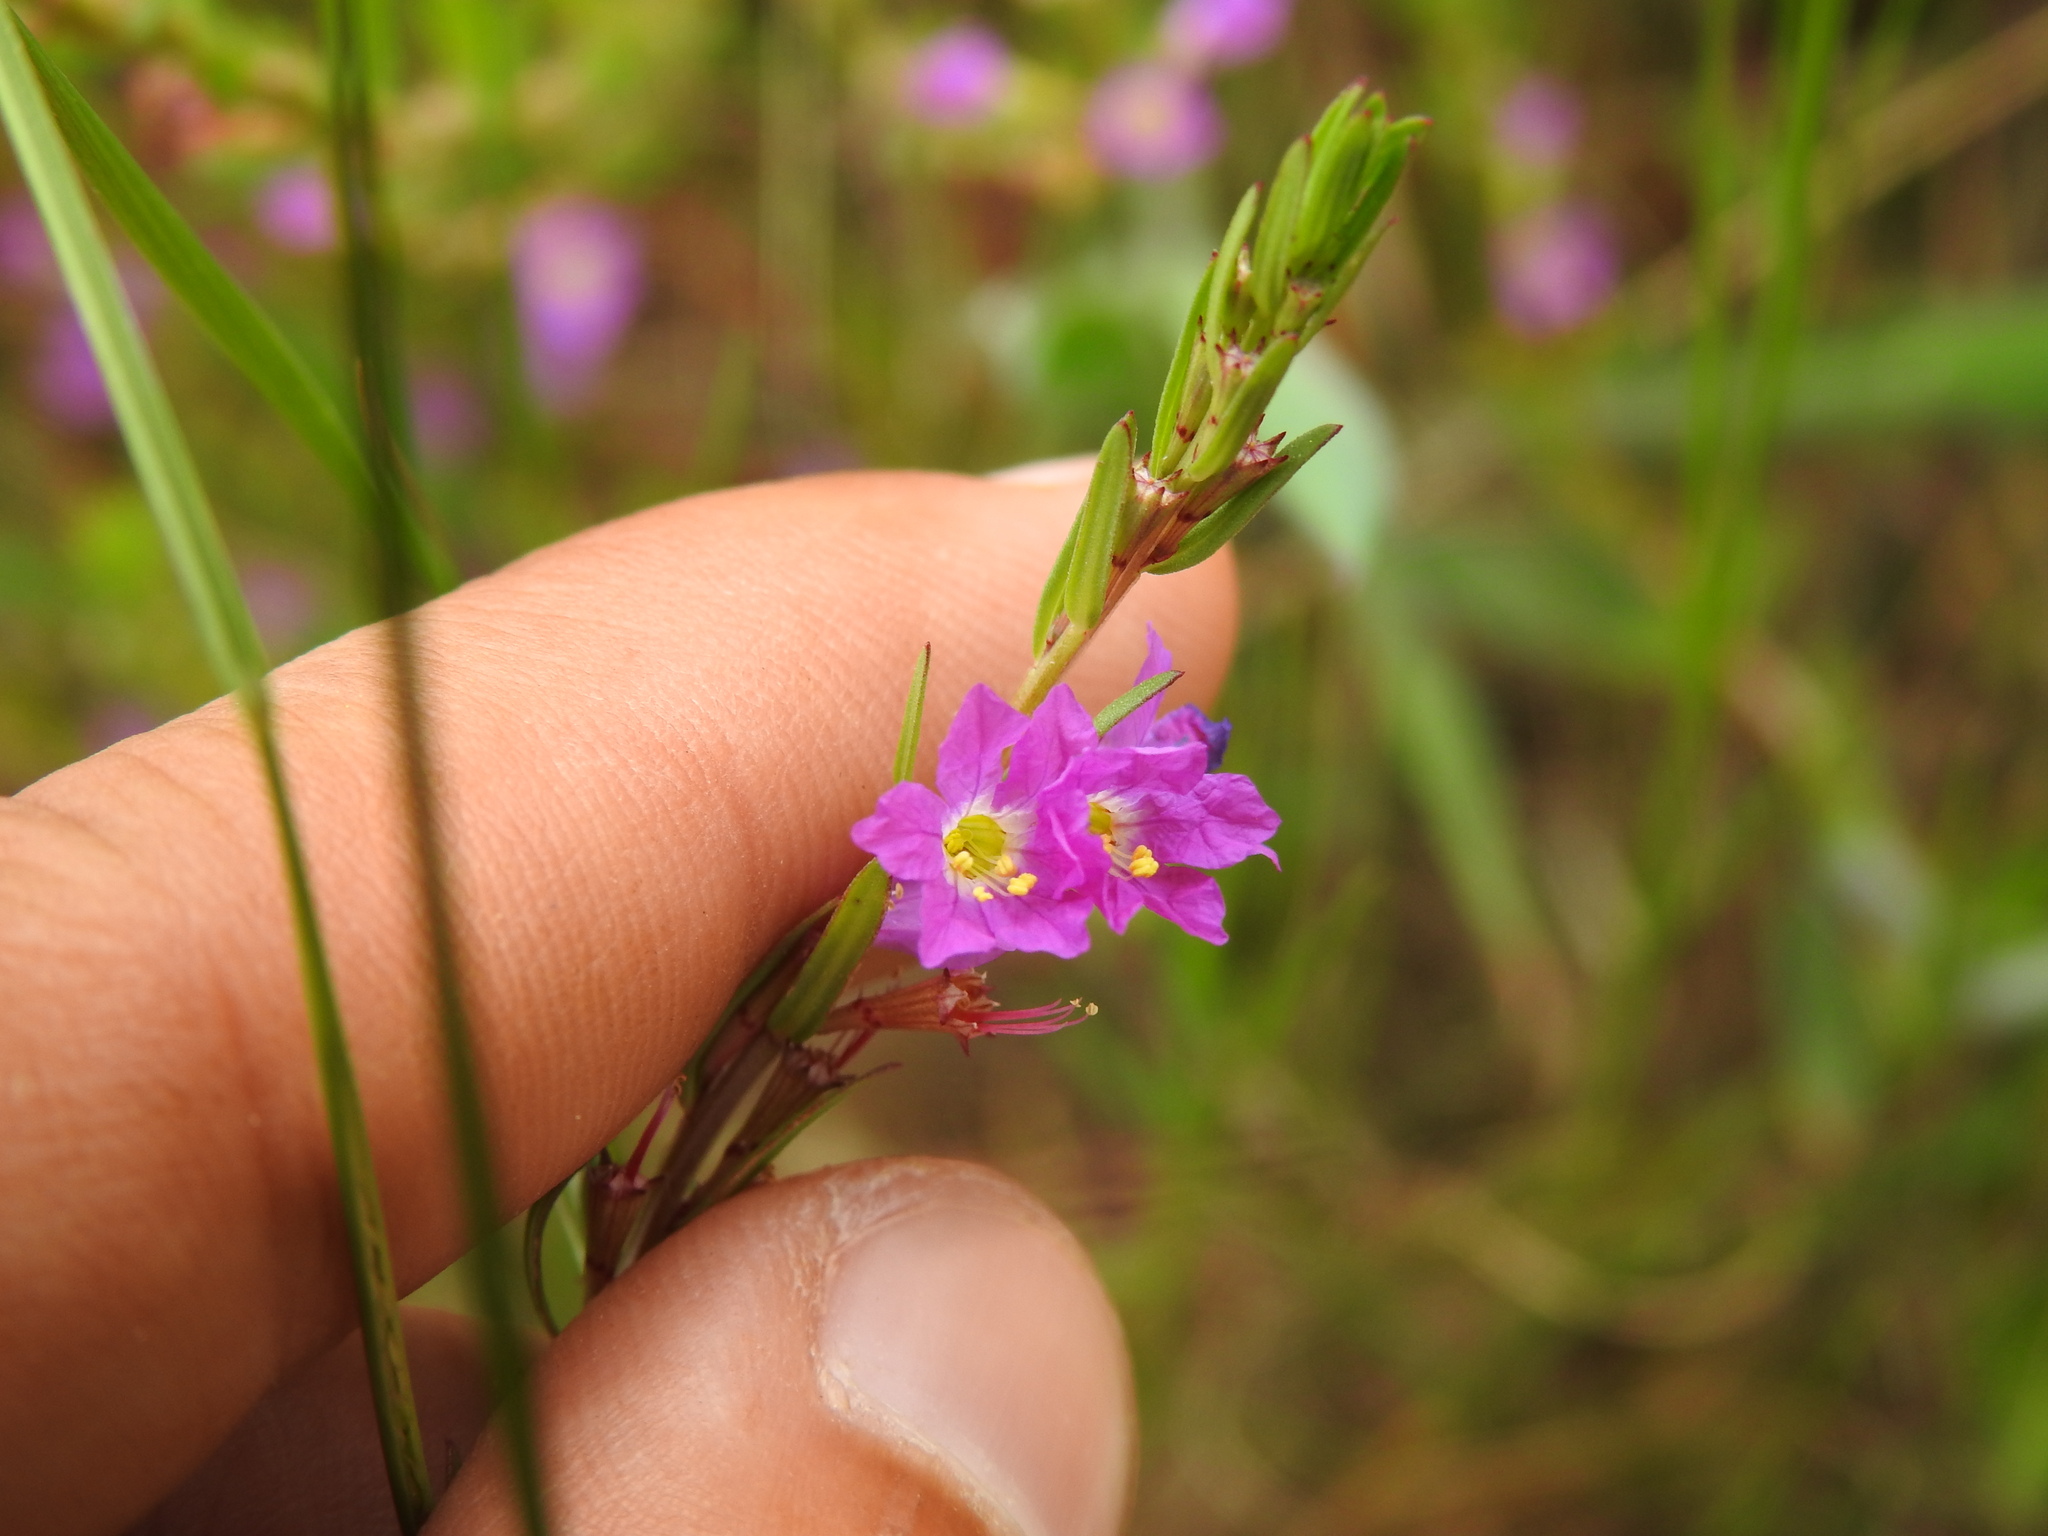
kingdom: Plantae
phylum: Tracheophyta
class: Magnoliopsida
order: Myrtales
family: Lythraceae
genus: Lythrum
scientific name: Lythrum junceum
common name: False grass-poly
